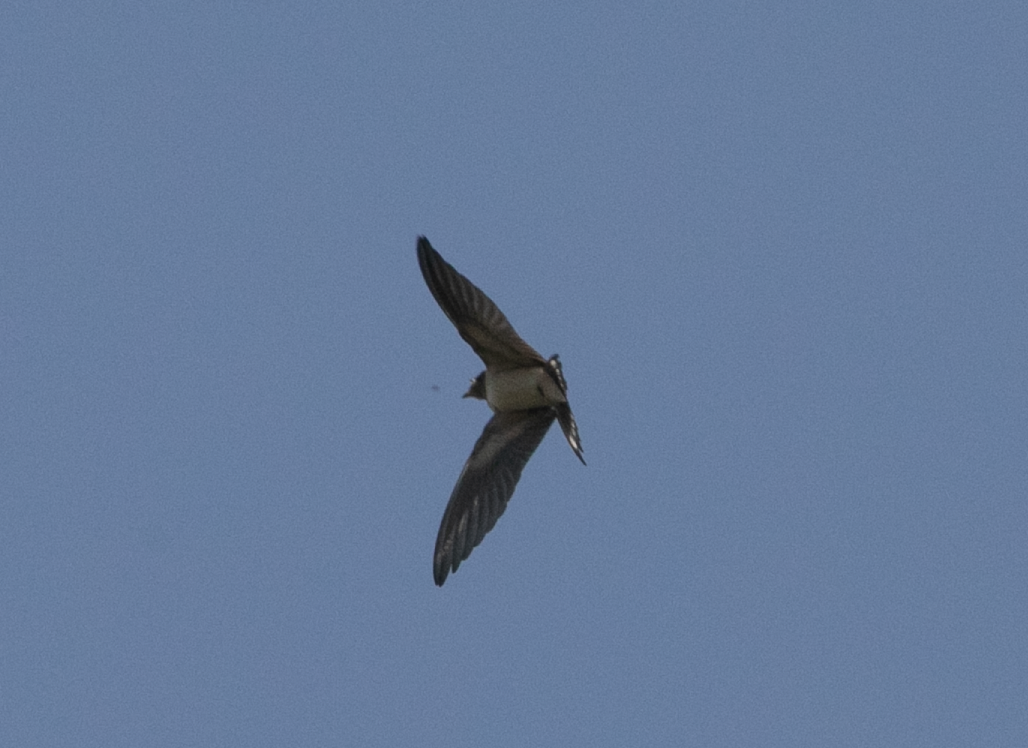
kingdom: Animalia
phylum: Chordata
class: Aves
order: Passeriformes
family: Hirundinidae
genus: Hirundo
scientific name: Hirundo rustica
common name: Barn swallow
